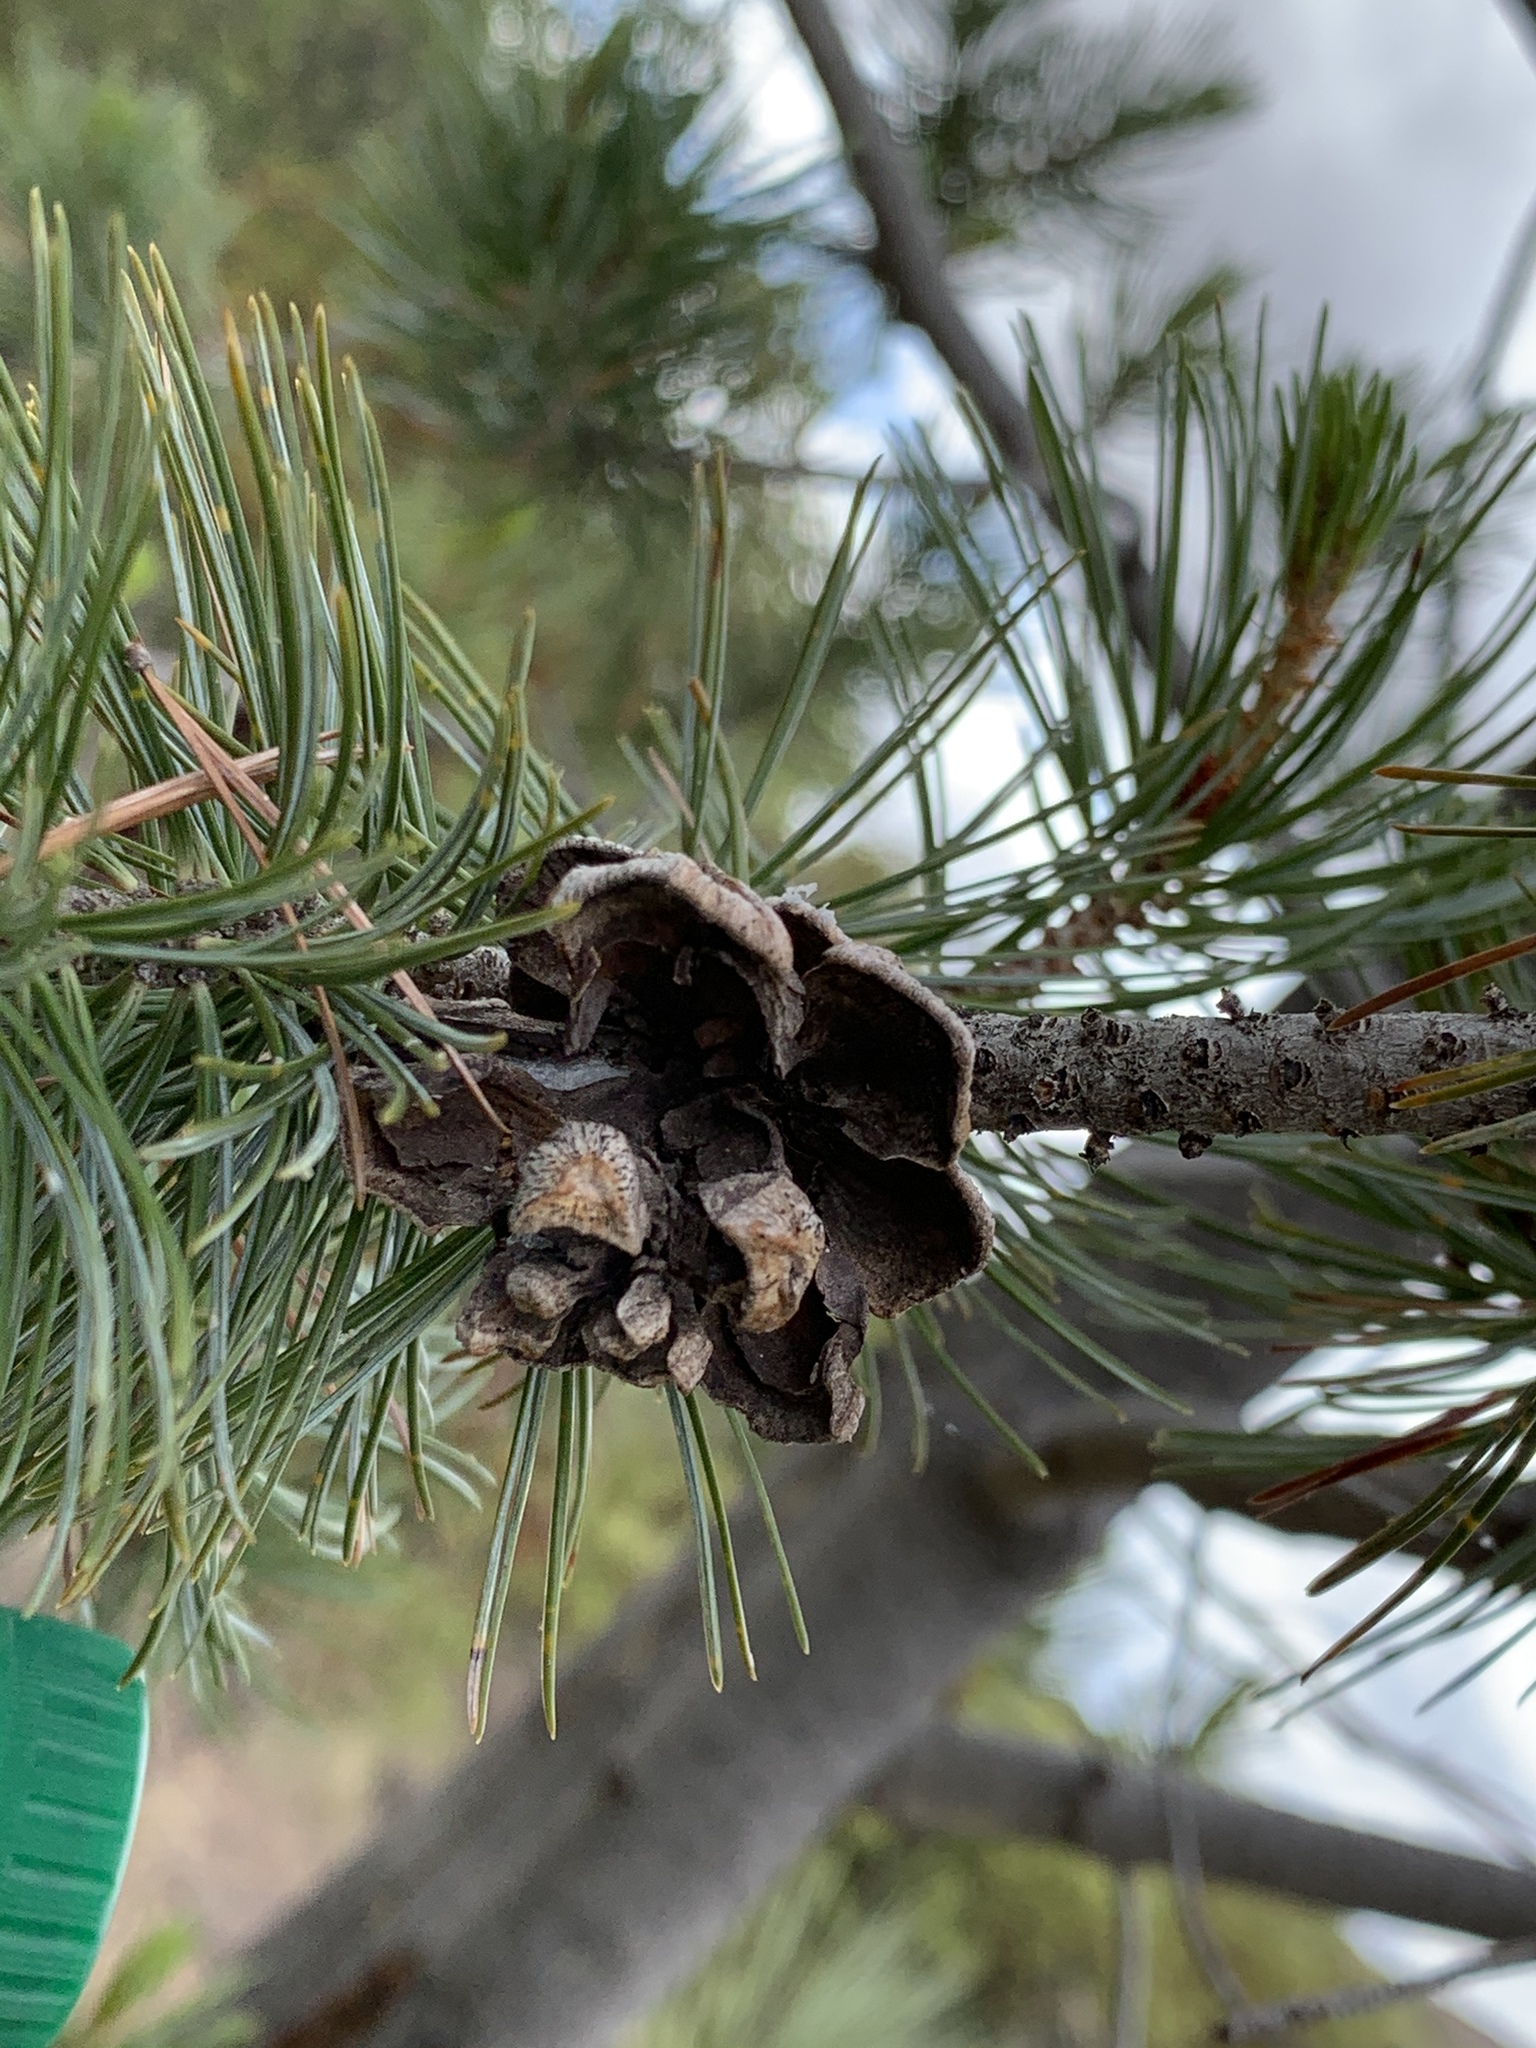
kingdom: Plantae
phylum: Tracheophyta
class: Pinopsida
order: Pinales
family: Pinaceae
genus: Pinus
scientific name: Pinus cembroides
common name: Mexican nut pine
